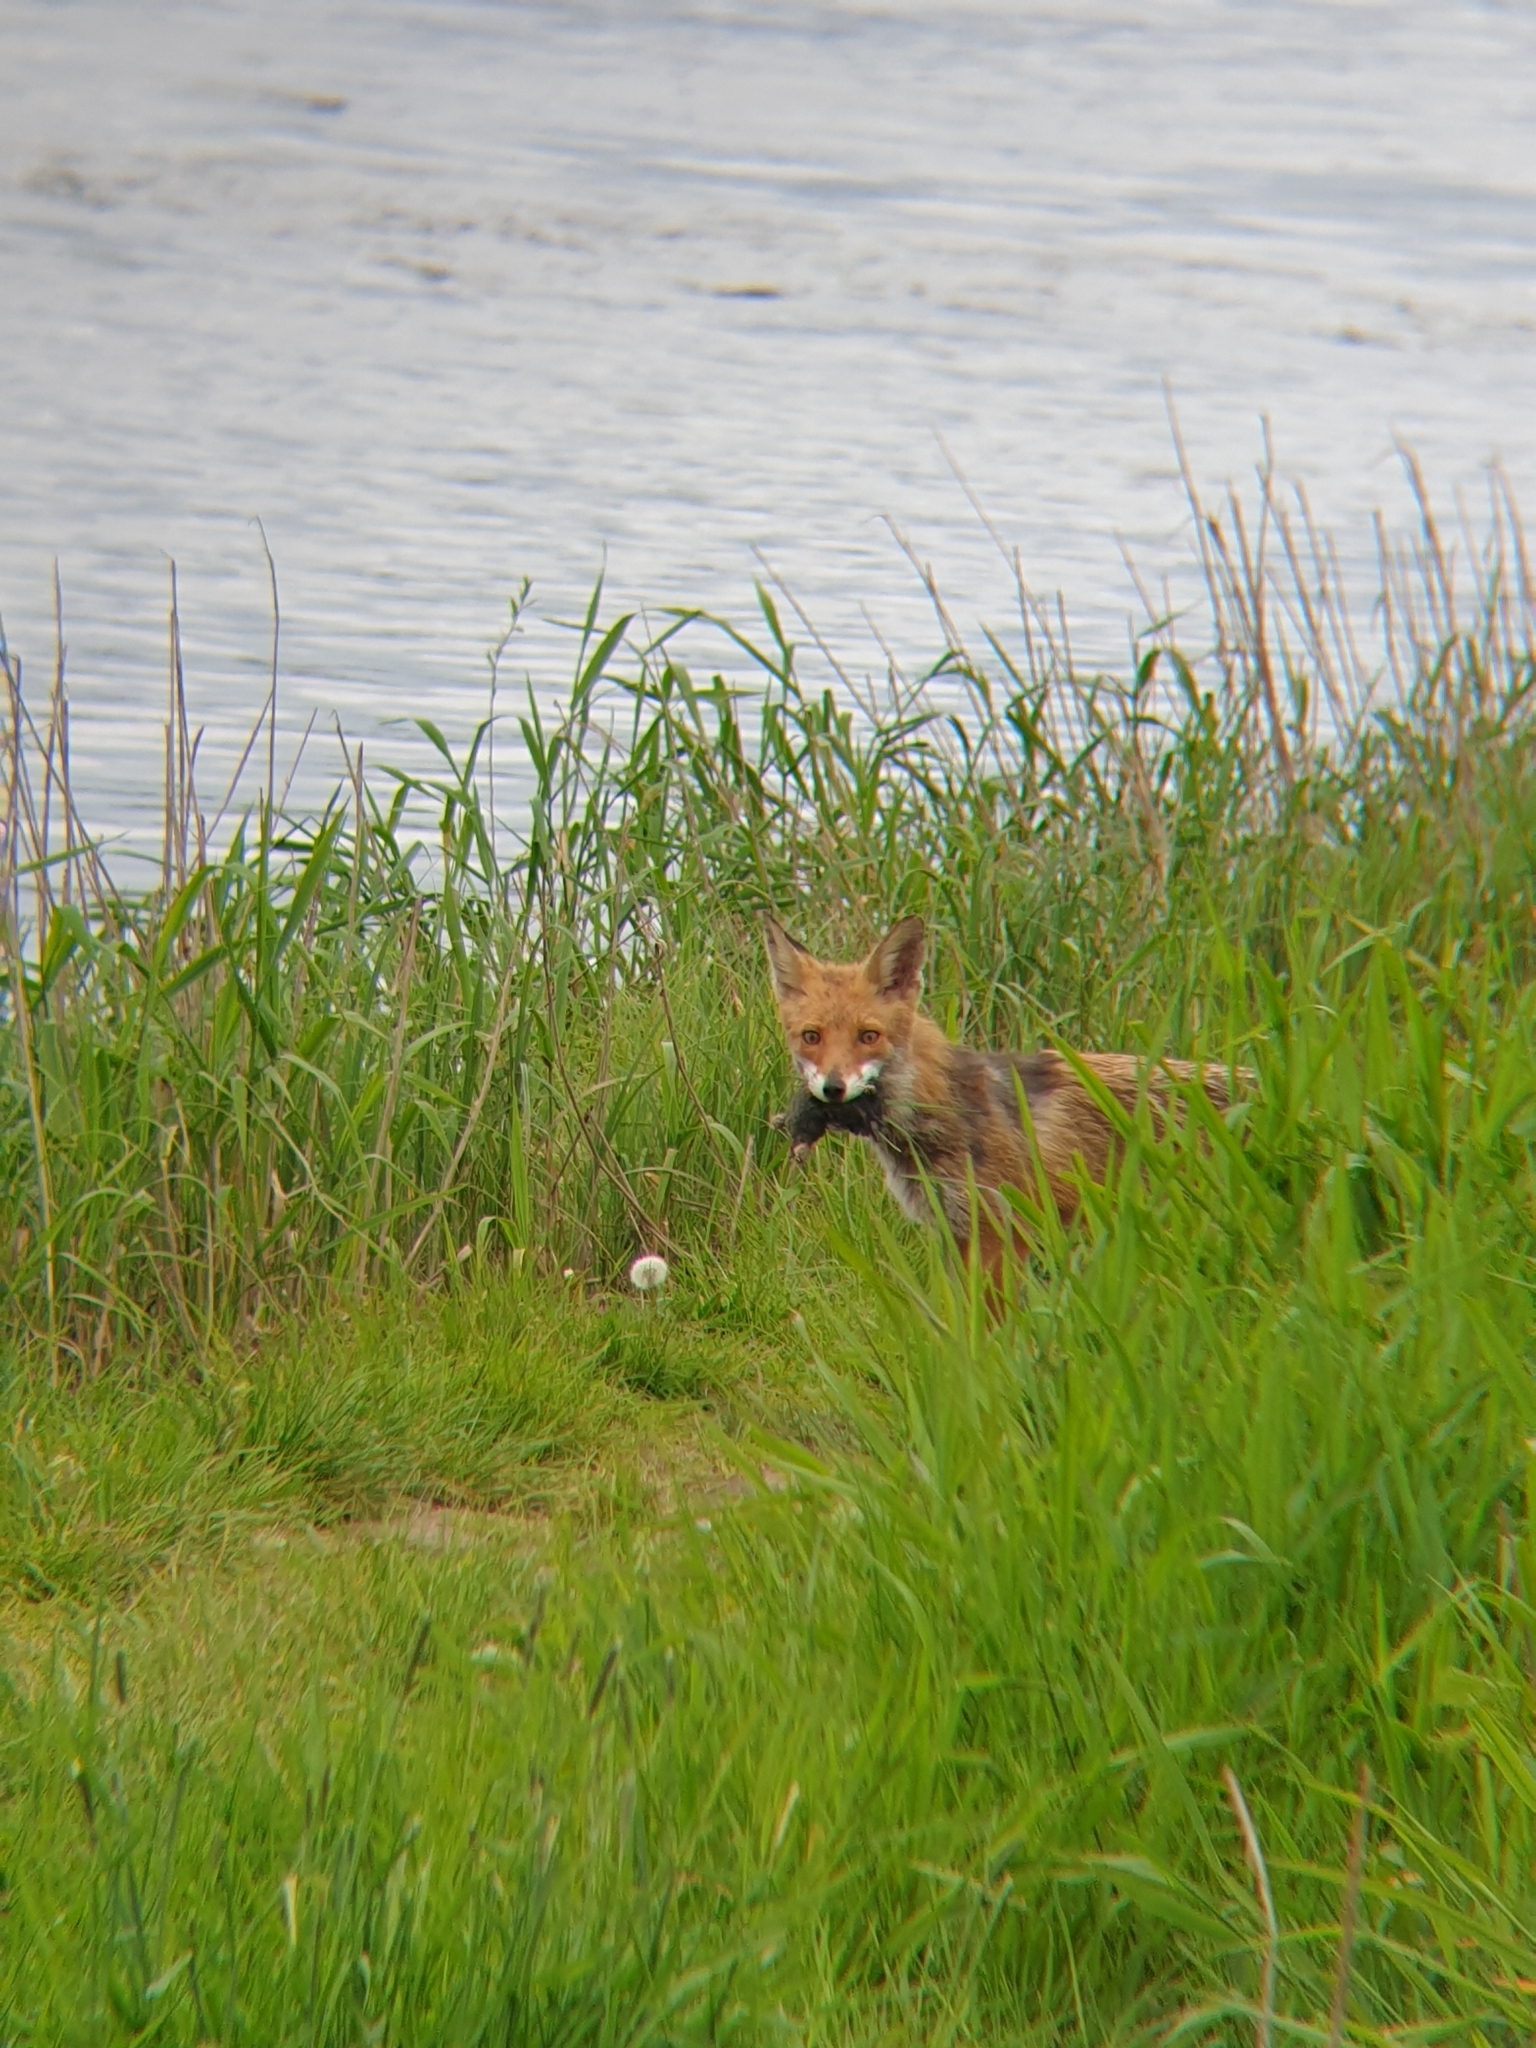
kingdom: Animalia
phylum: Chordata
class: Mammalia
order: Carnivora
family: Canidae
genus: Vulpes
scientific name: Vulpes vulpes
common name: Red fox
